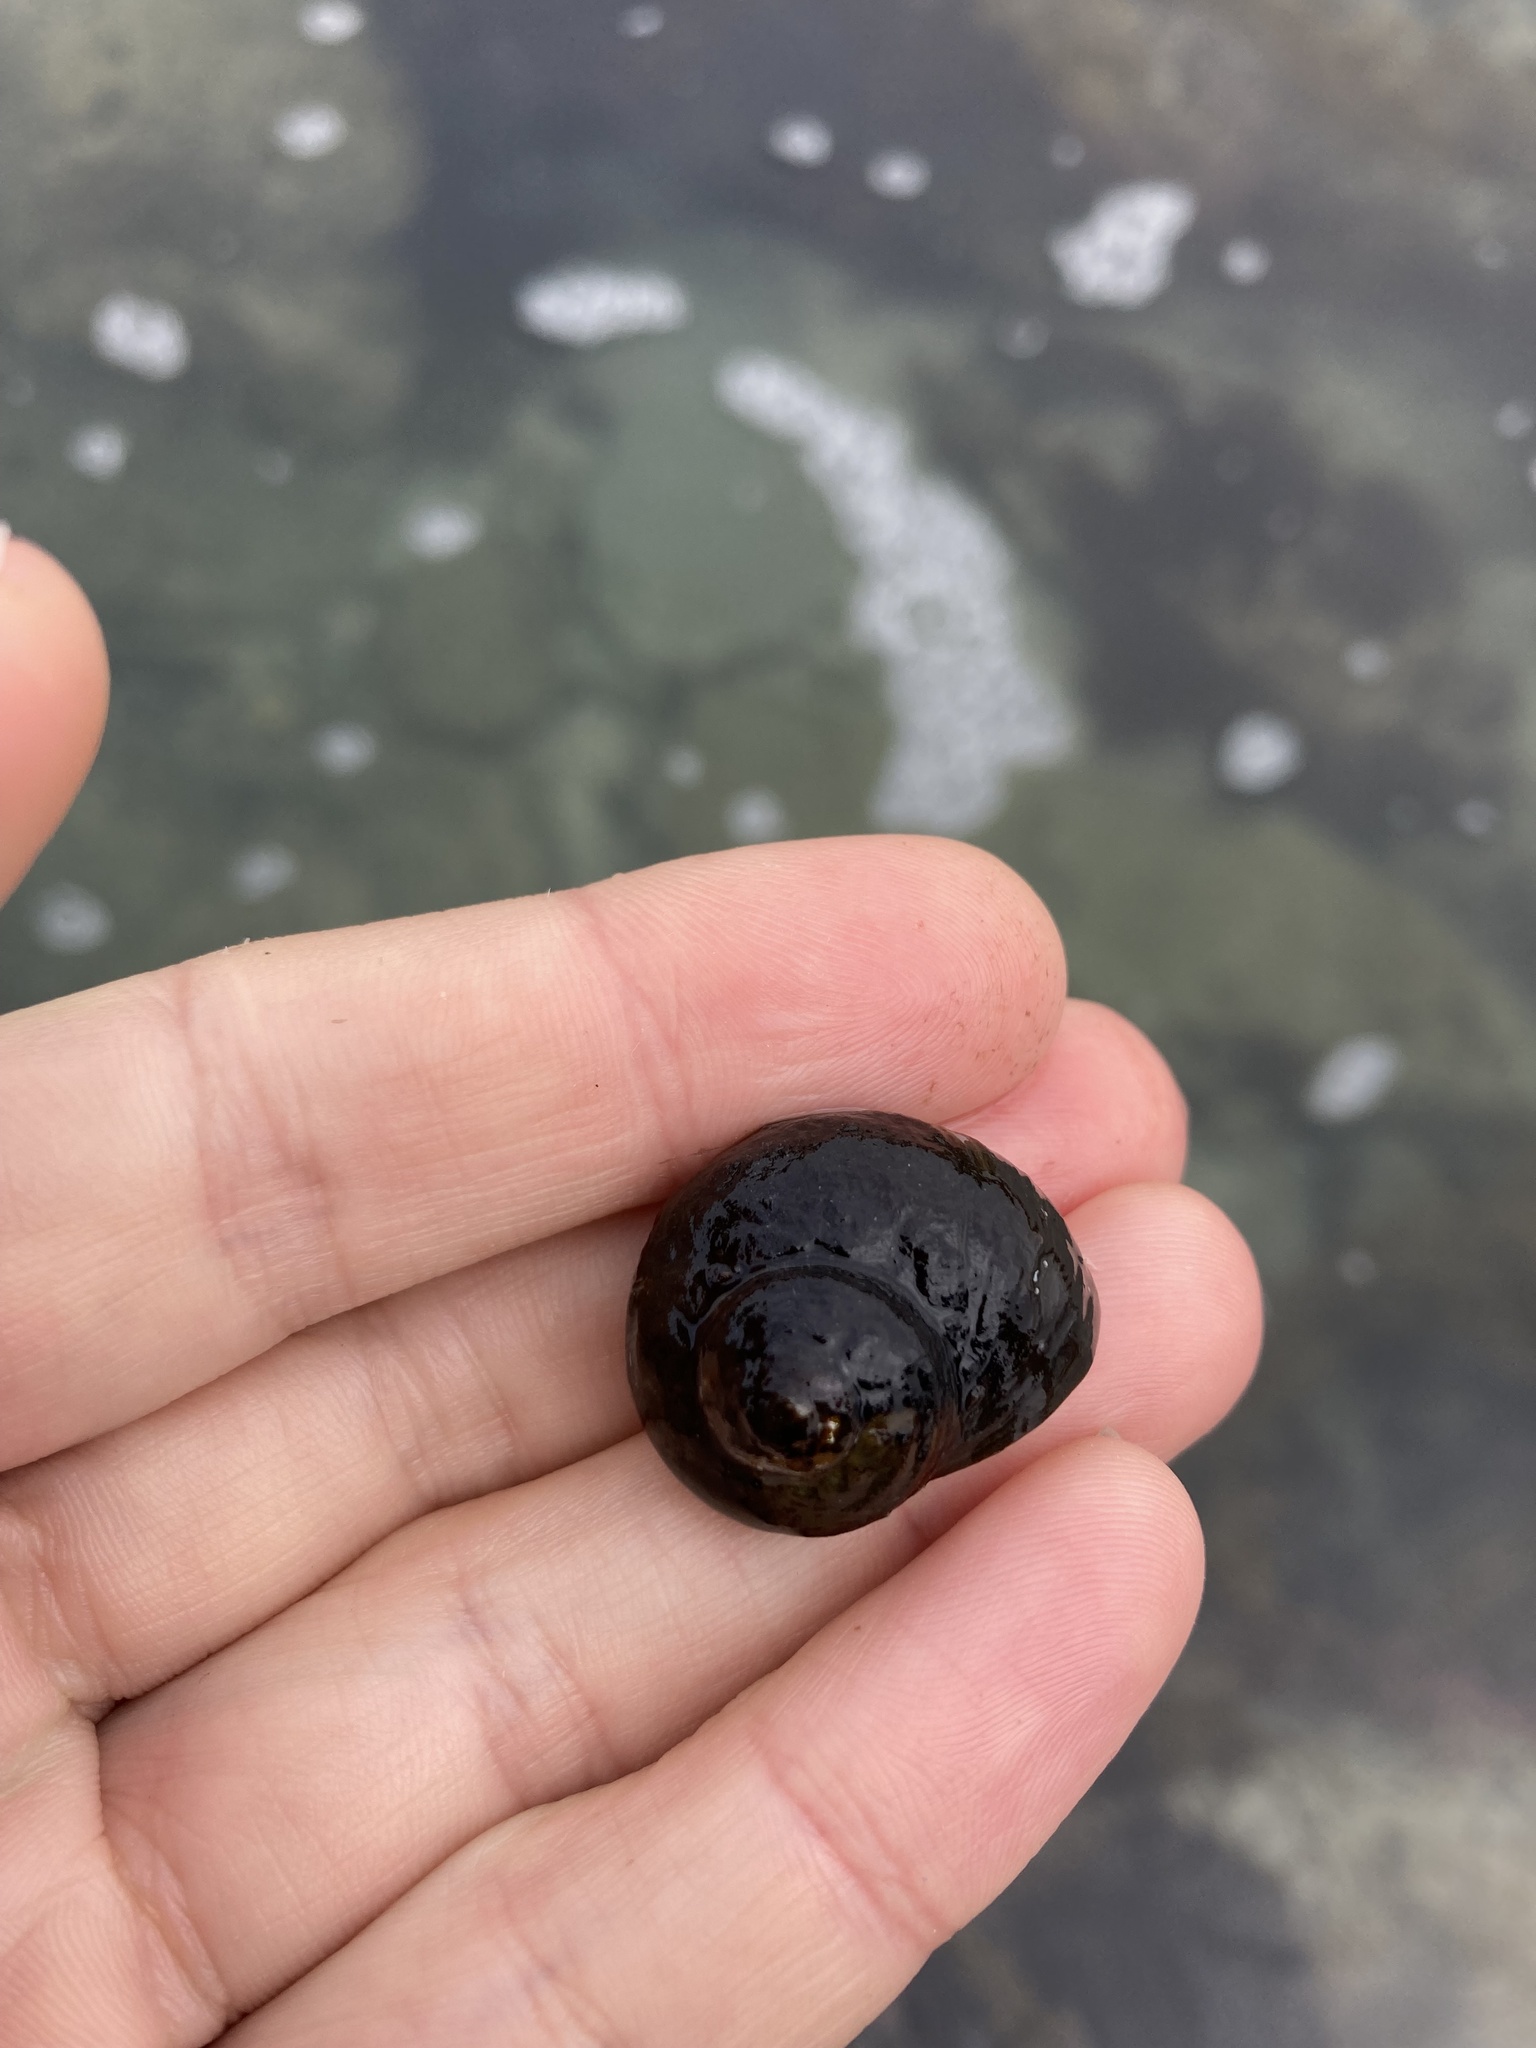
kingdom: Animalia
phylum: Mollusca
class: Gastropoda
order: Trochida
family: Turbinidae
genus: Lunella
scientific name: Lunella smaragda
